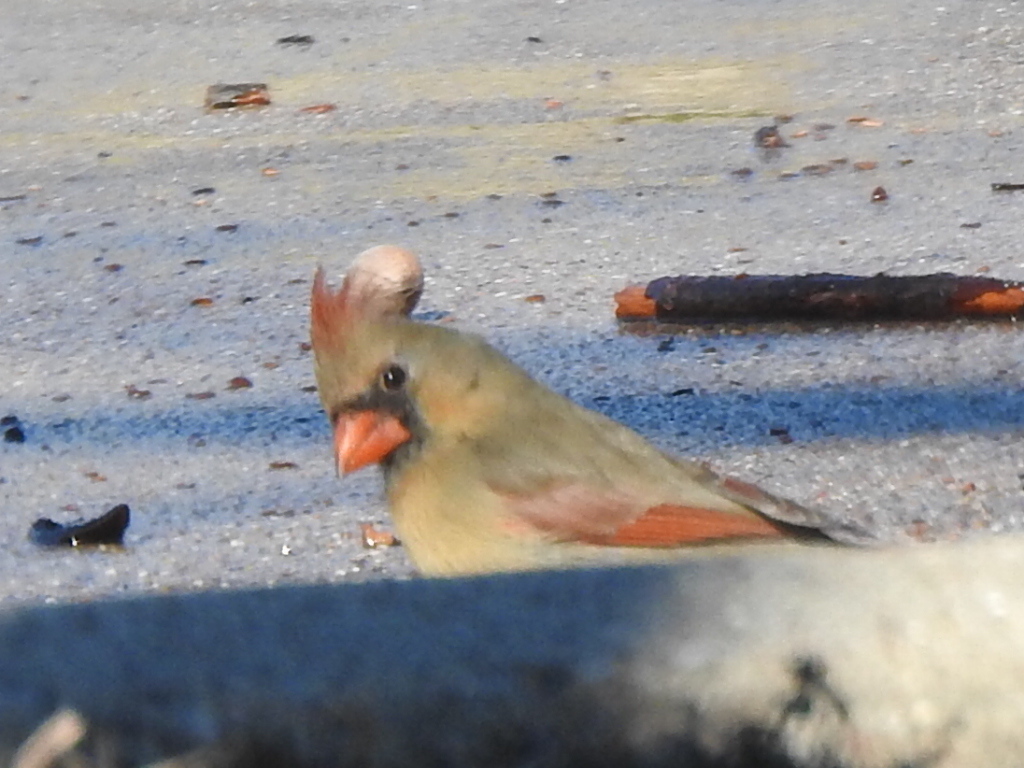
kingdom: Animalia
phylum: Chordata
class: Aves
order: Passeriformes
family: Cardinalidae
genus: Cardinalis
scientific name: Cardinalis cardinalis
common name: Northern cardinal
